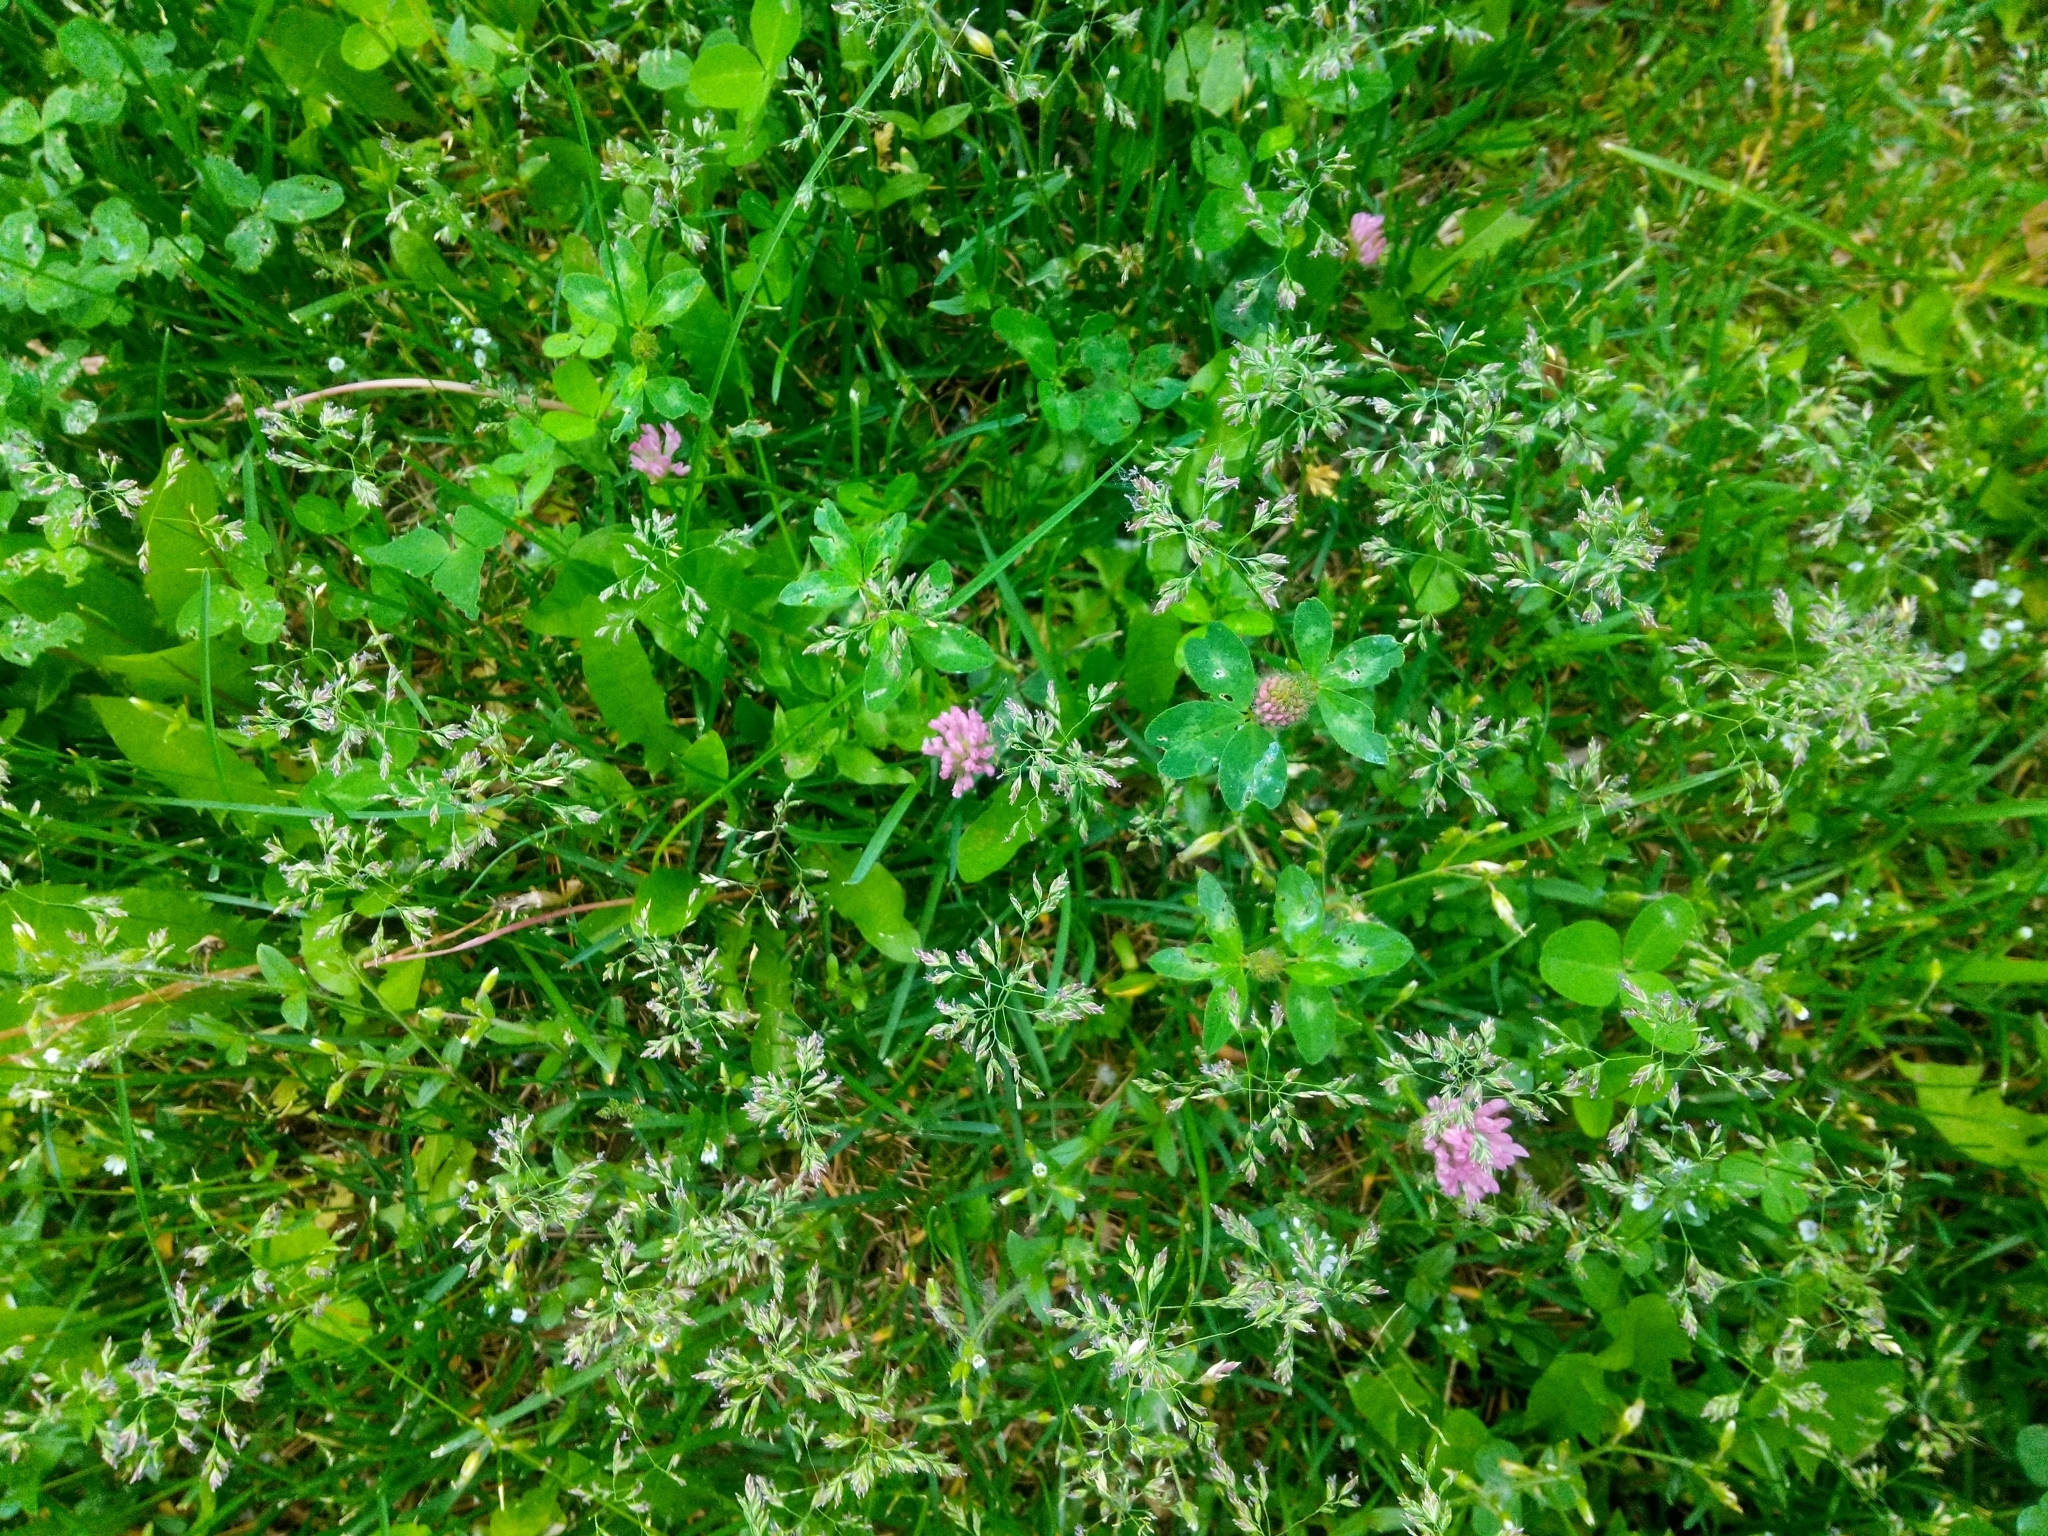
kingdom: Plantae
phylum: Tracheophyta
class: Magnoliopsida
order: Fabales
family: Fabaceae
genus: Trifolium
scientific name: Trifolium pratense
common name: Red clover
